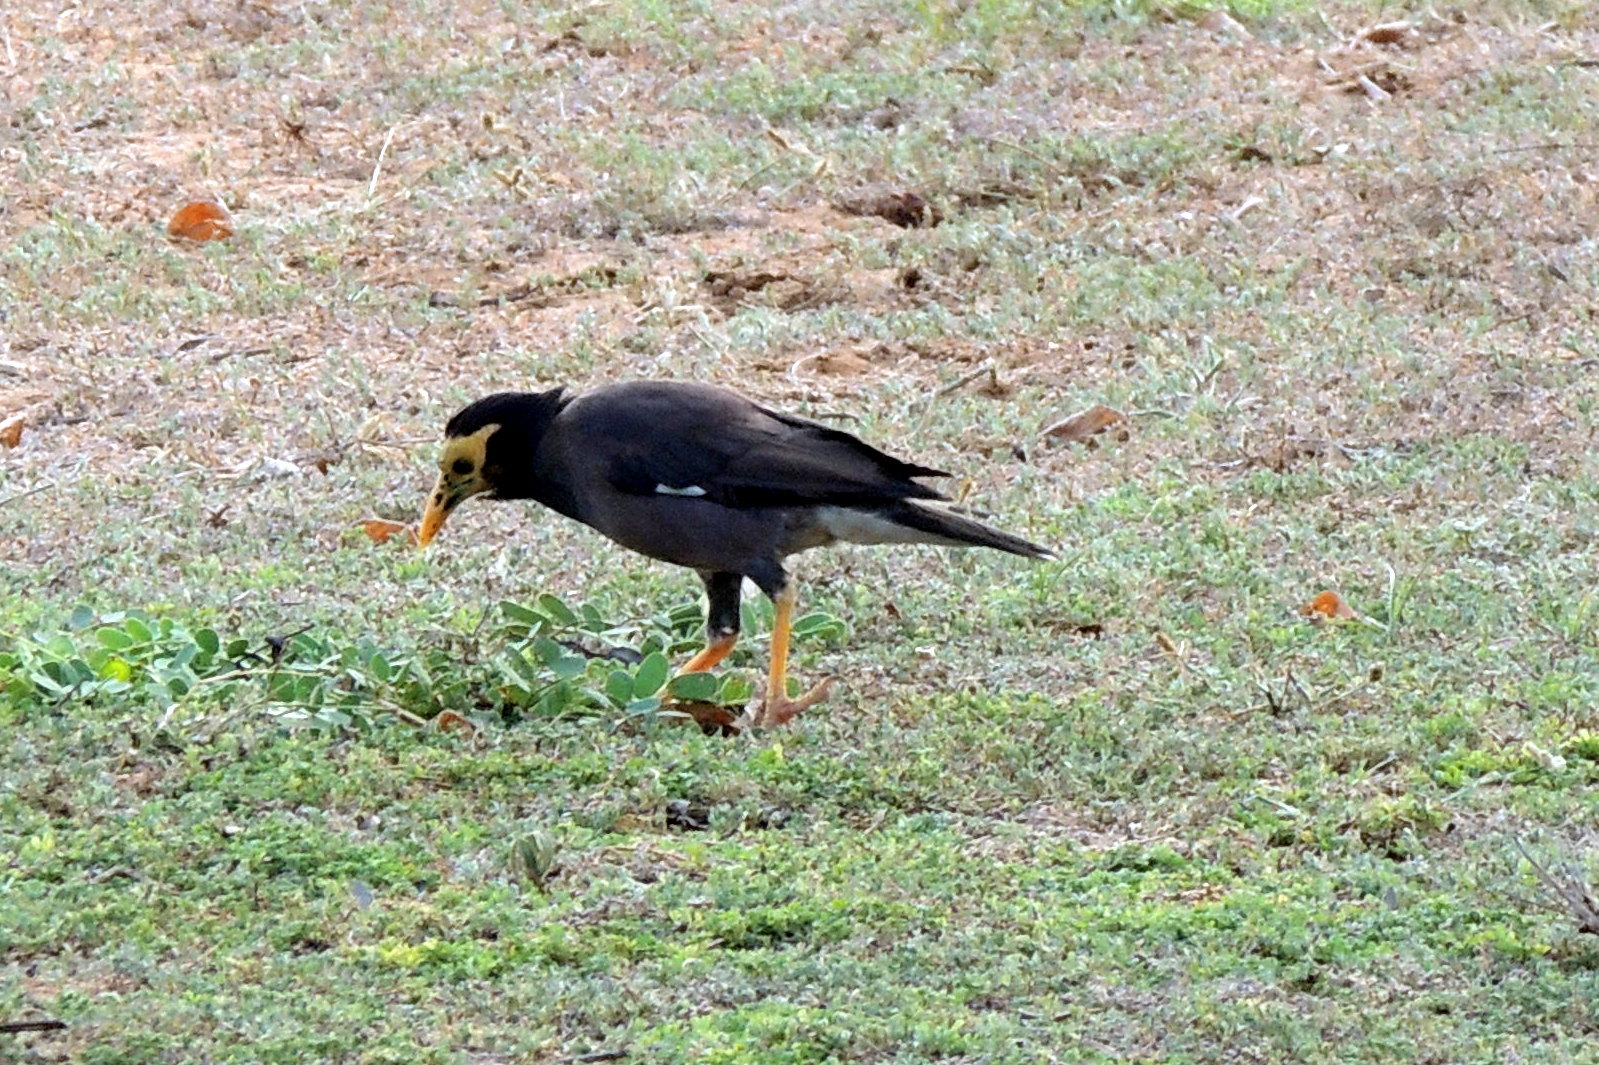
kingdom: Animalia
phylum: Chordata
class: Aves
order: Passeriformes
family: Sturnidae
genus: Acridotheres
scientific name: Acridotheres tristis
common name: Common myna
